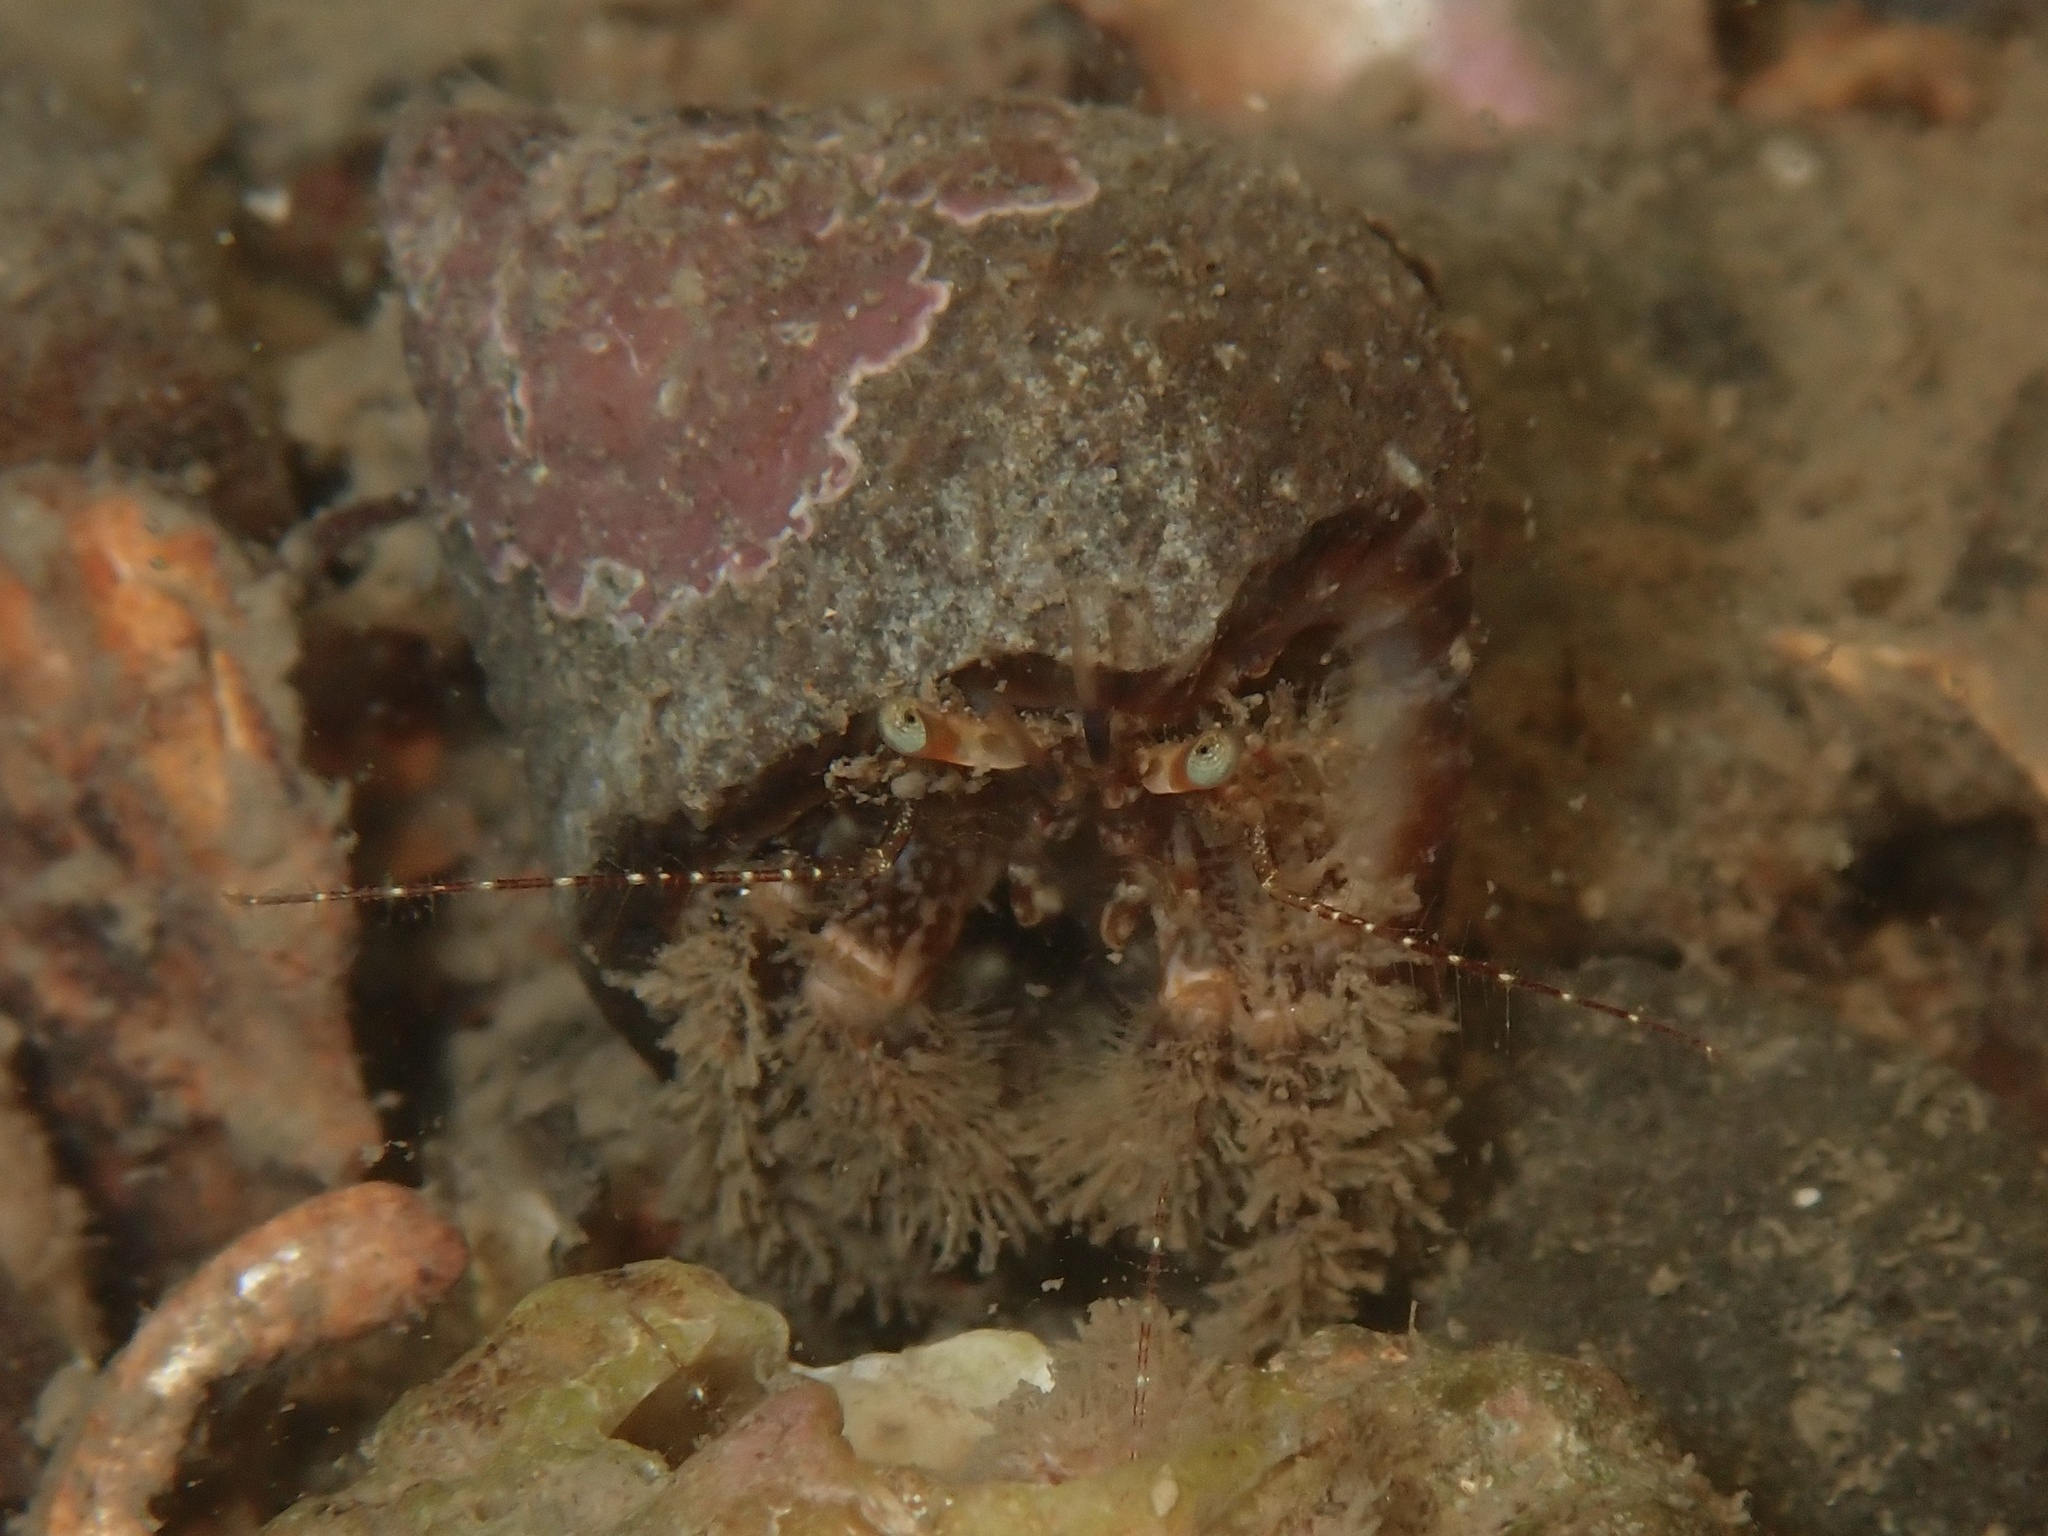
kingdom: Animalia
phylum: Arthropoda
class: Malacostraca
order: Decapoda
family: Paguridae
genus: Pagurus
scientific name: Pagurus cuanensis
